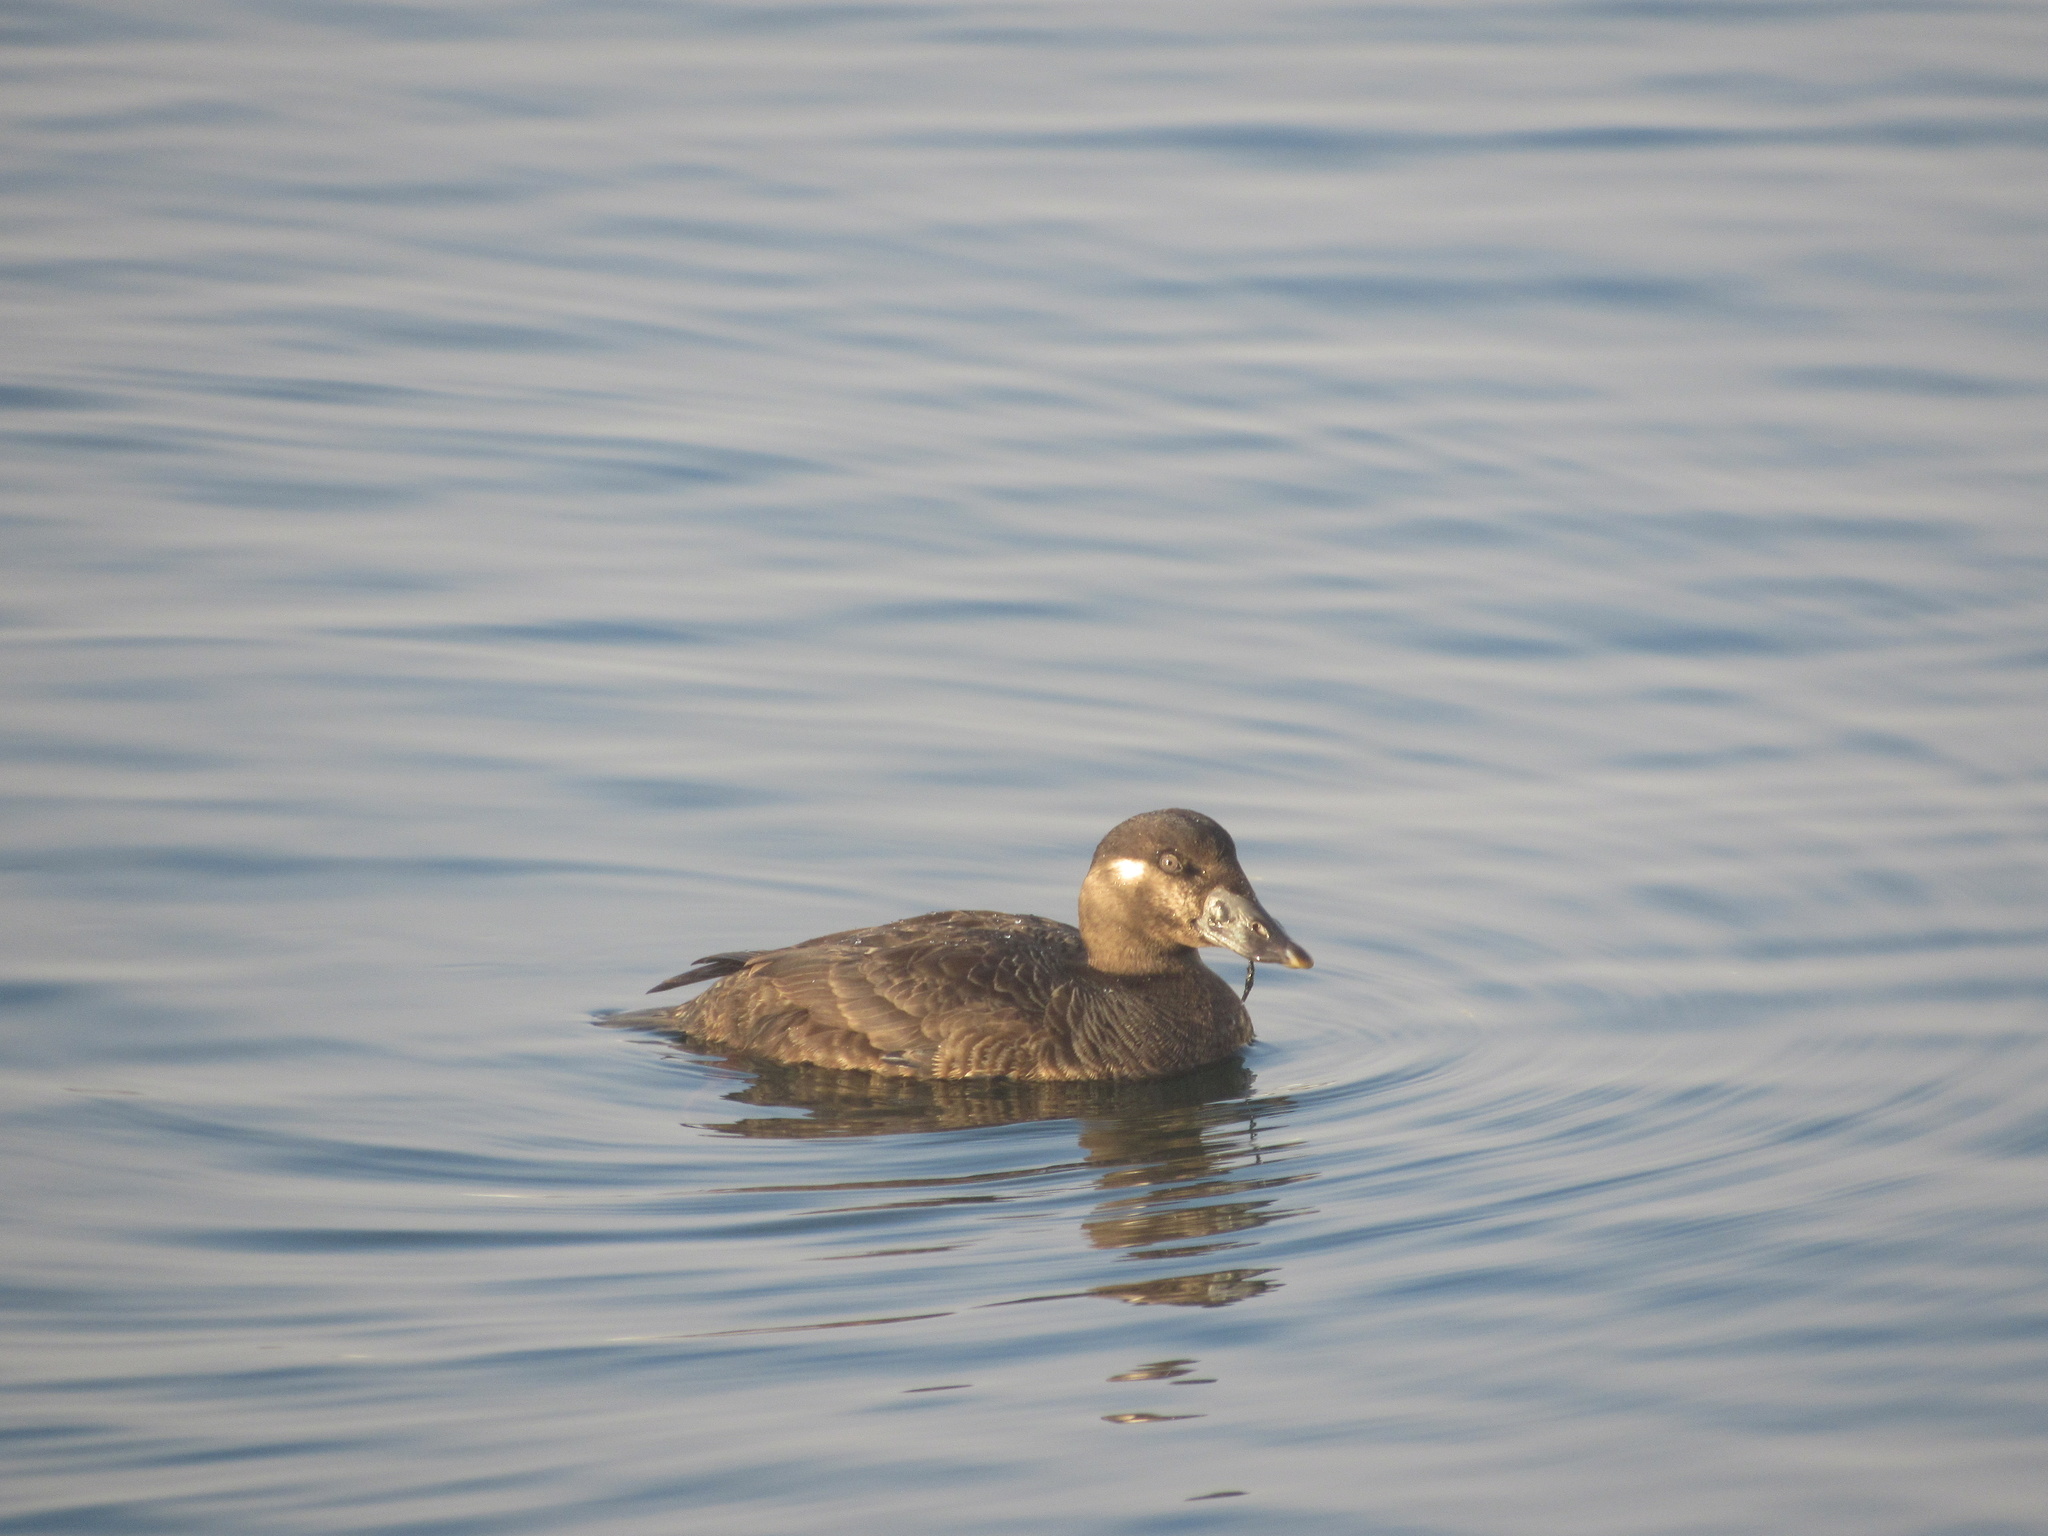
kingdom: Animalia
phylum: Chordata
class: Aves
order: Anseriformes
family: Anatidae
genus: Melanitta
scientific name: Melanitta perspicillata
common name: Surf scoter
